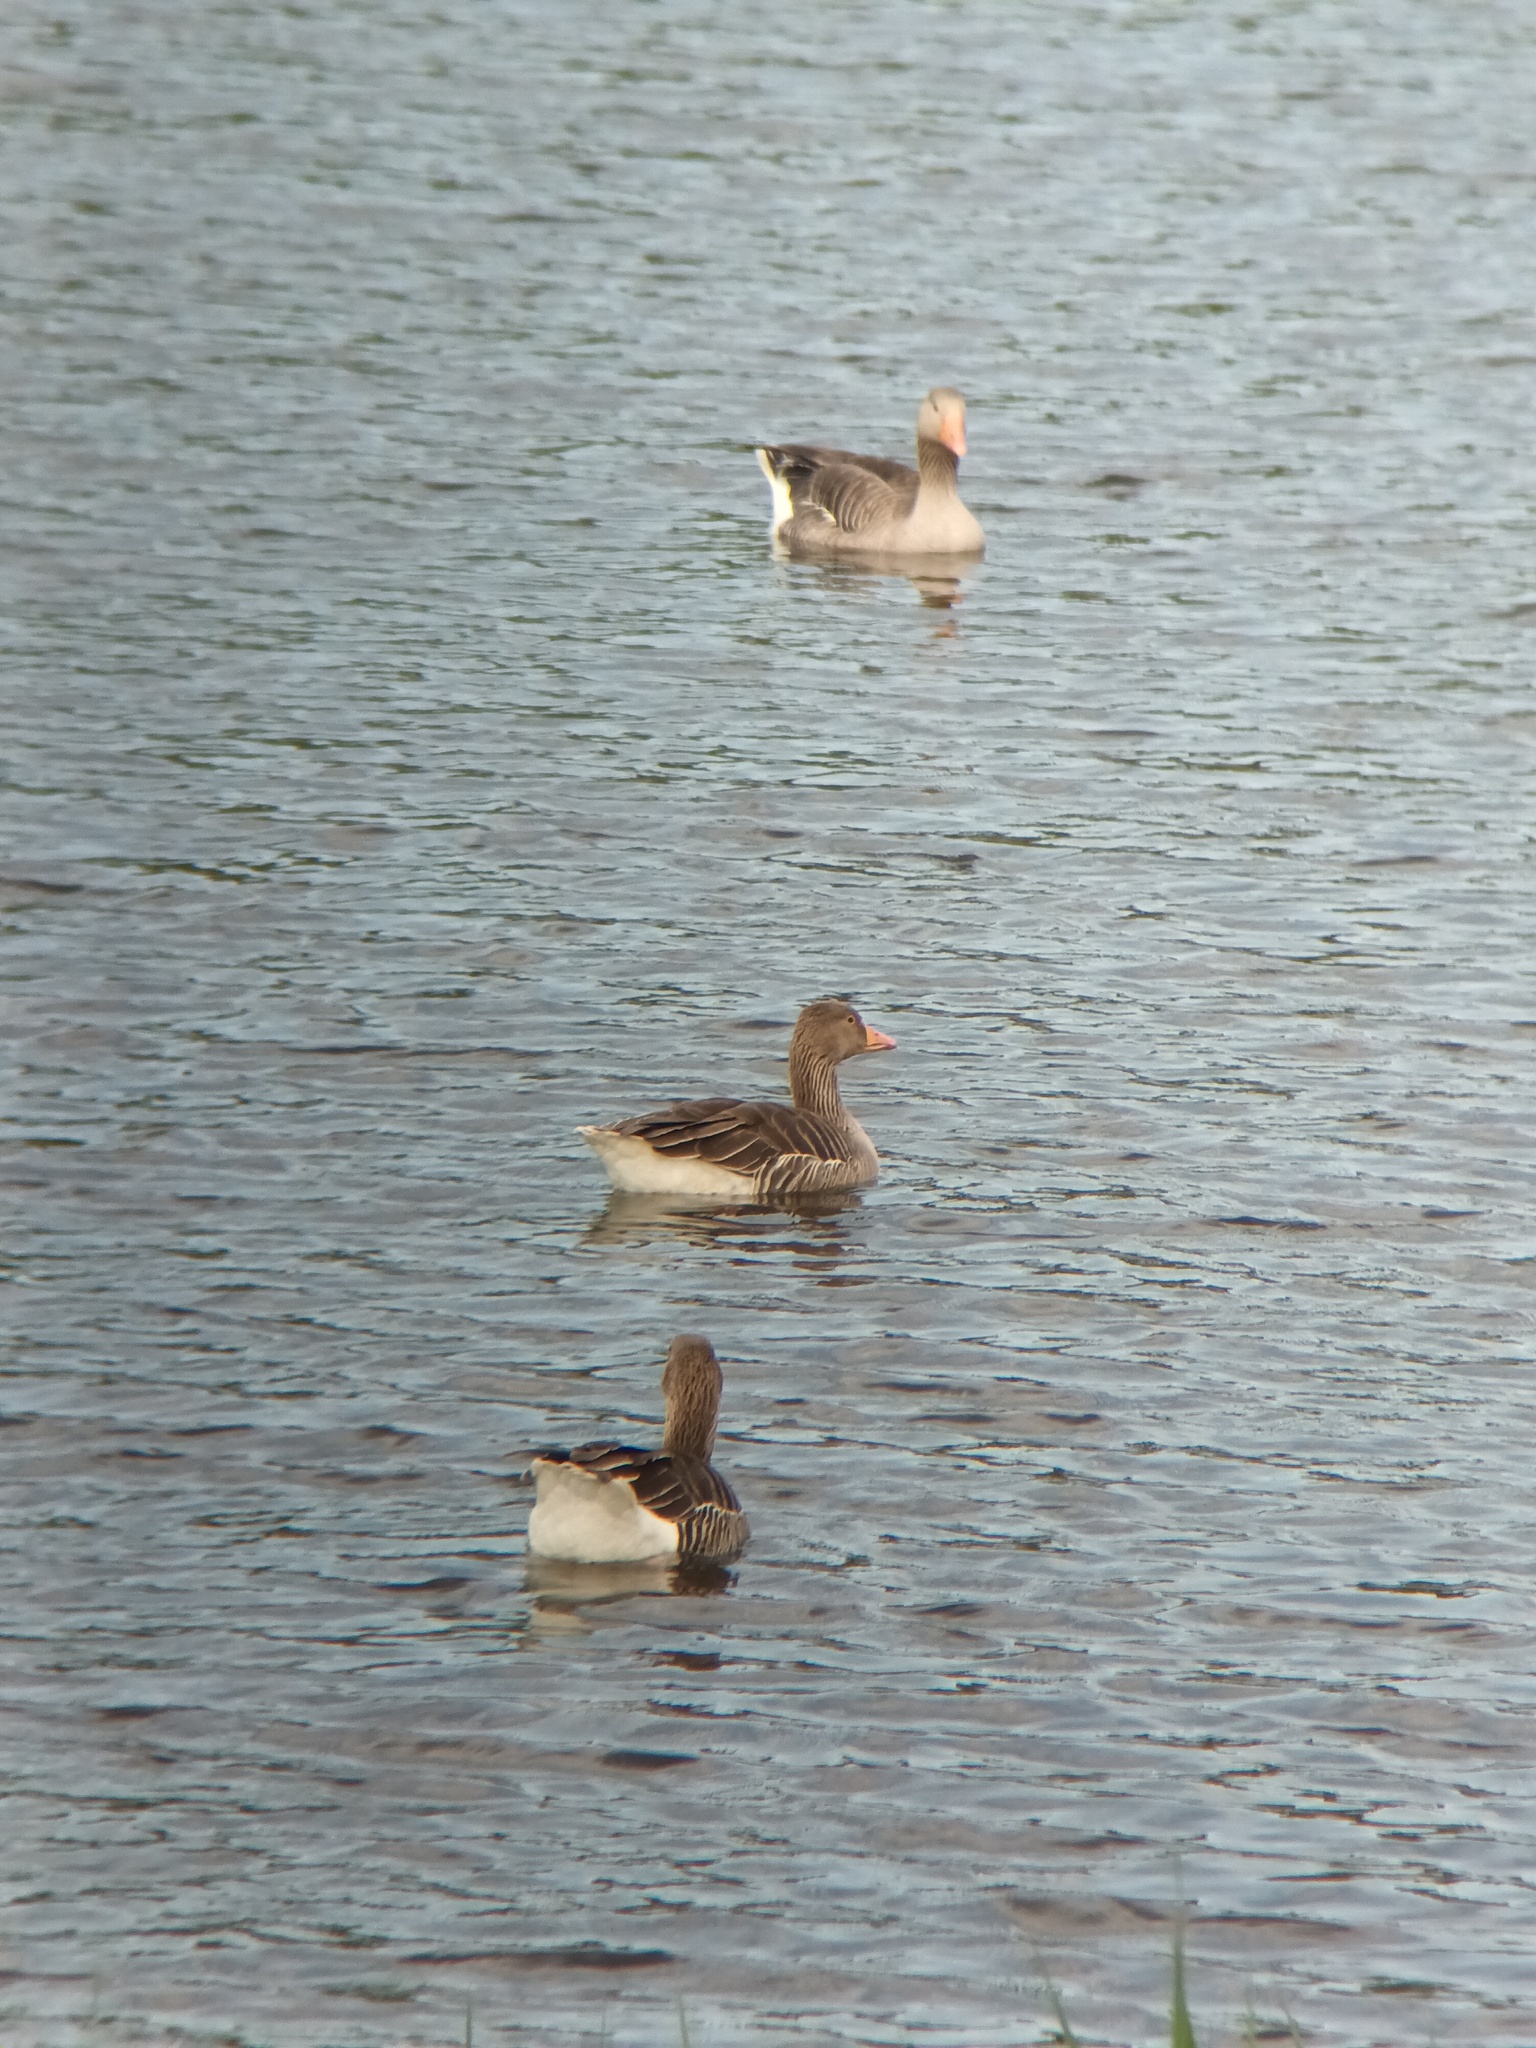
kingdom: Animalia
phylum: Chordata
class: Aves
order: Anseriformes
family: Anatidae
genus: Anser
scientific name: Anser anser
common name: Greylag goose
